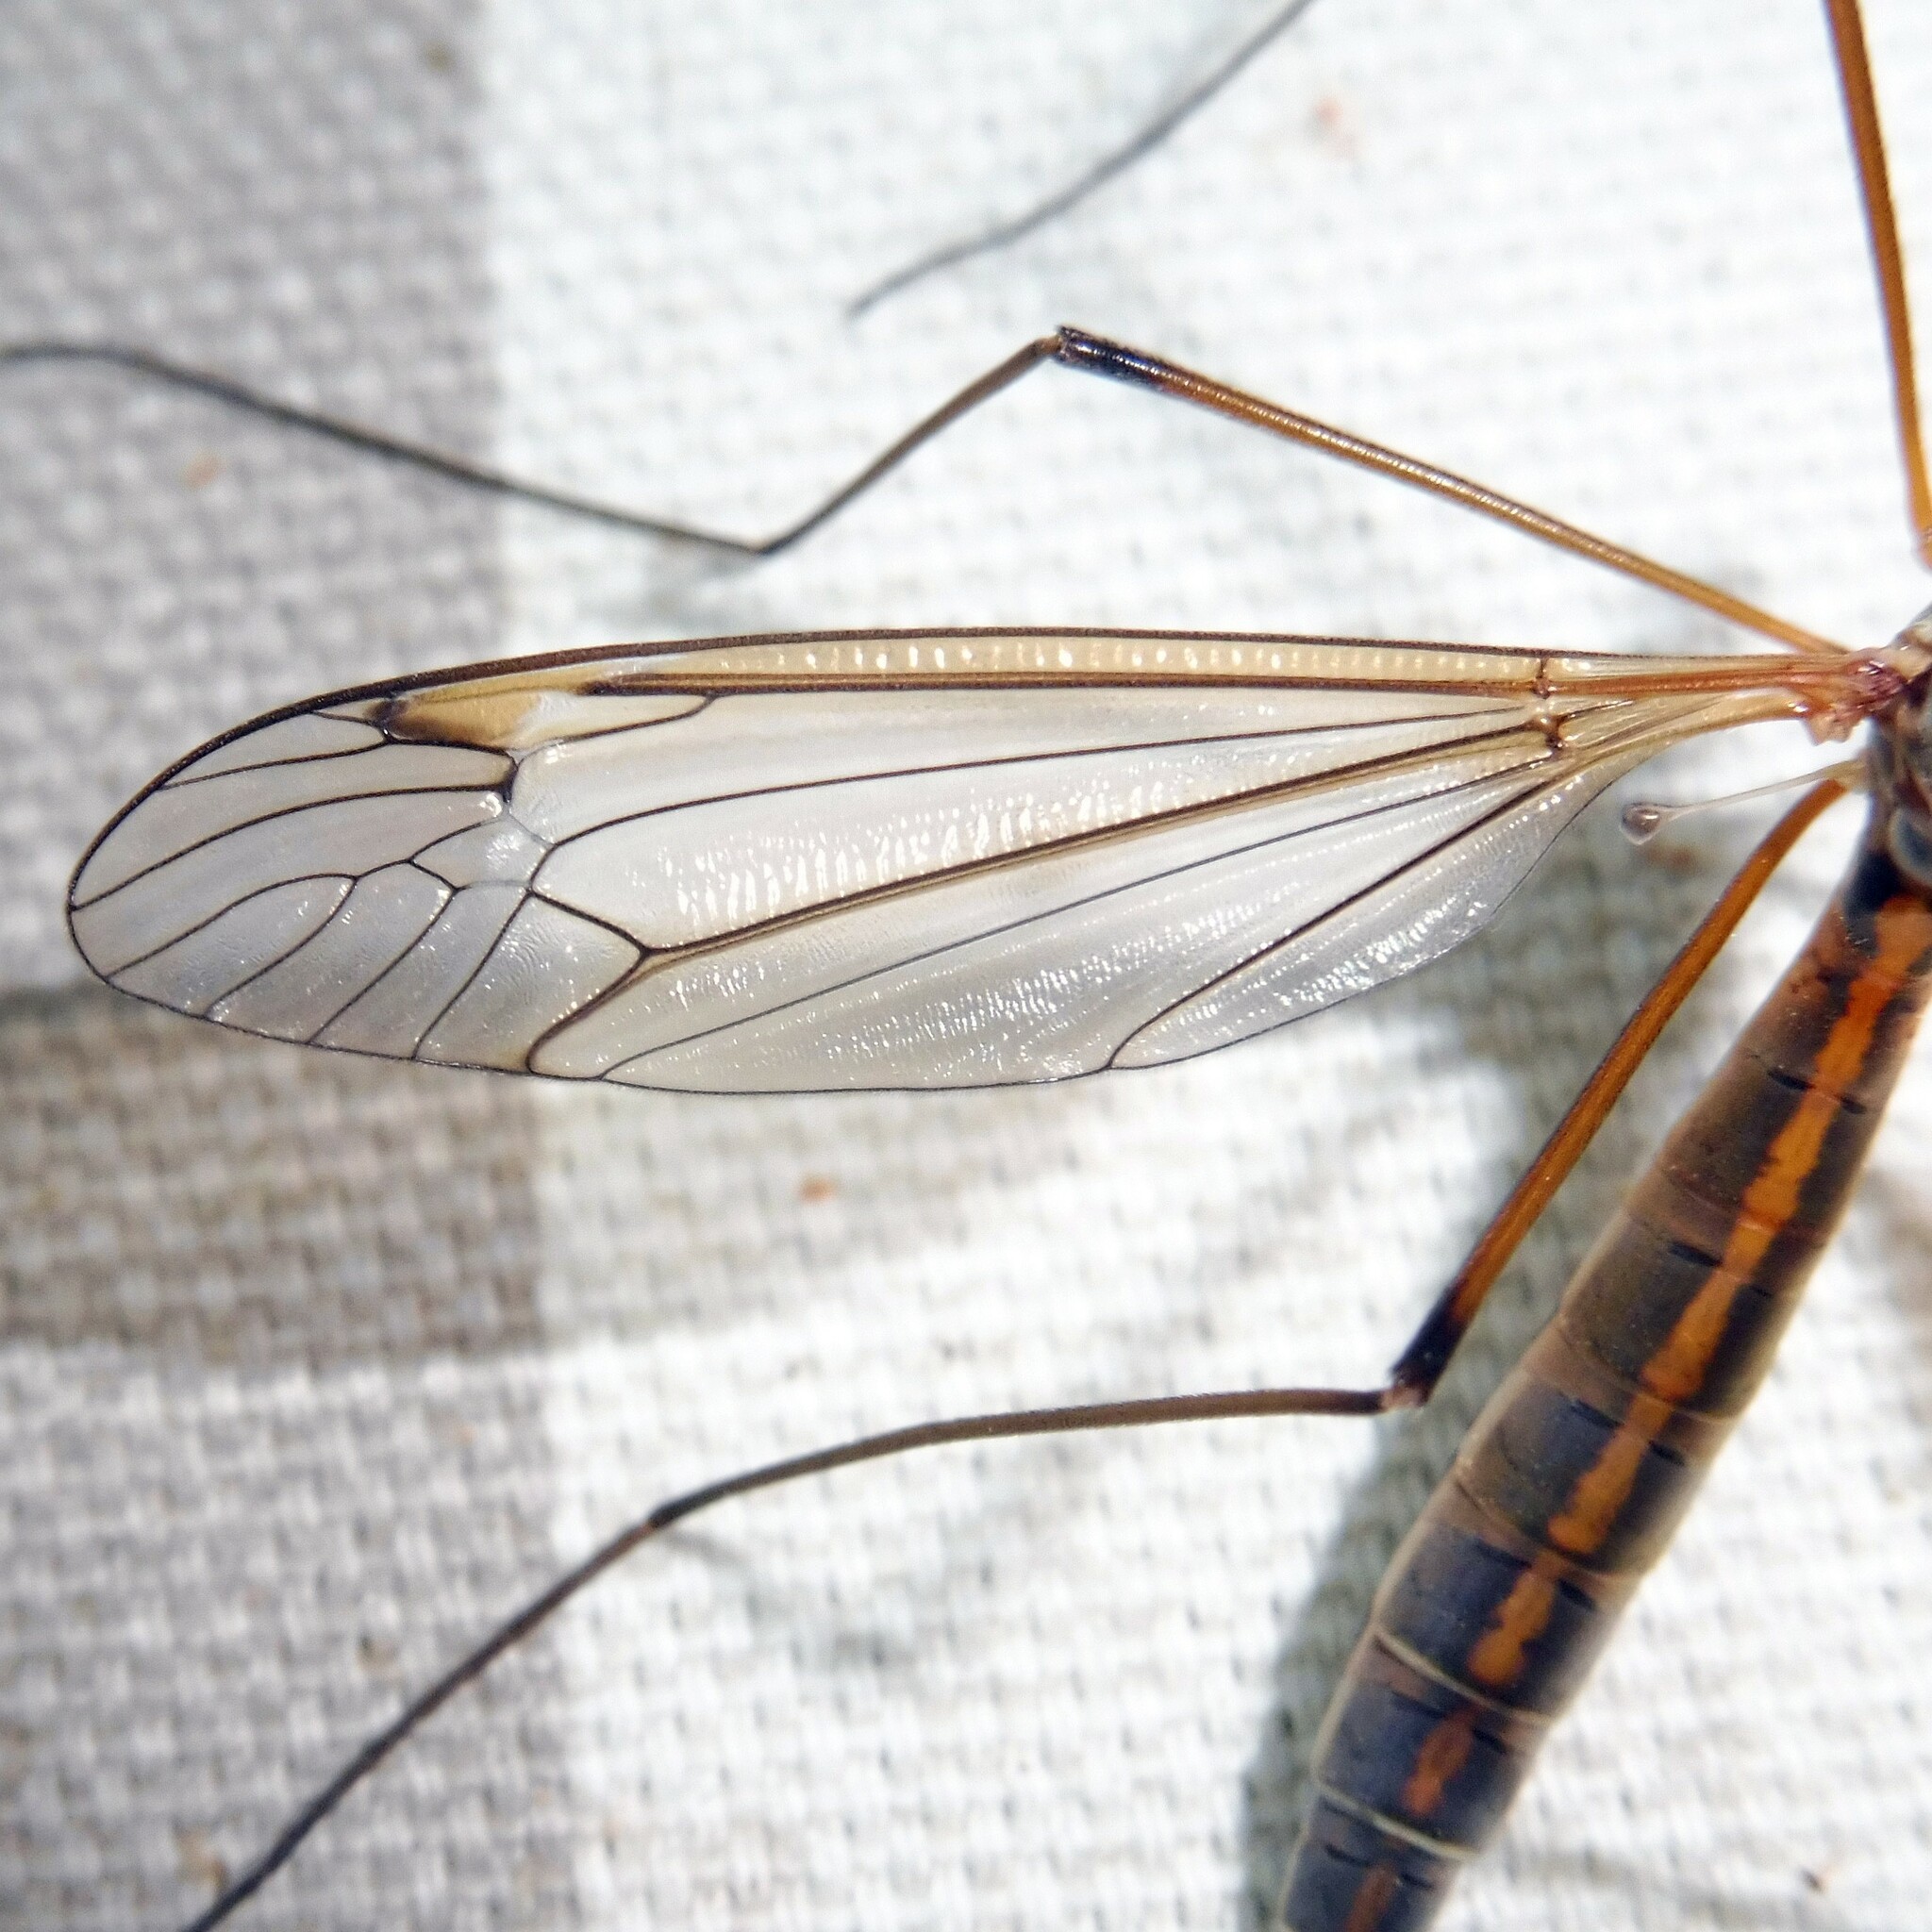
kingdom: Animalia
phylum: Arthropoda
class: Insecta
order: Diptera
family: Tipulidae
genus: Tipula
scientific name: Tipula flavolineata
